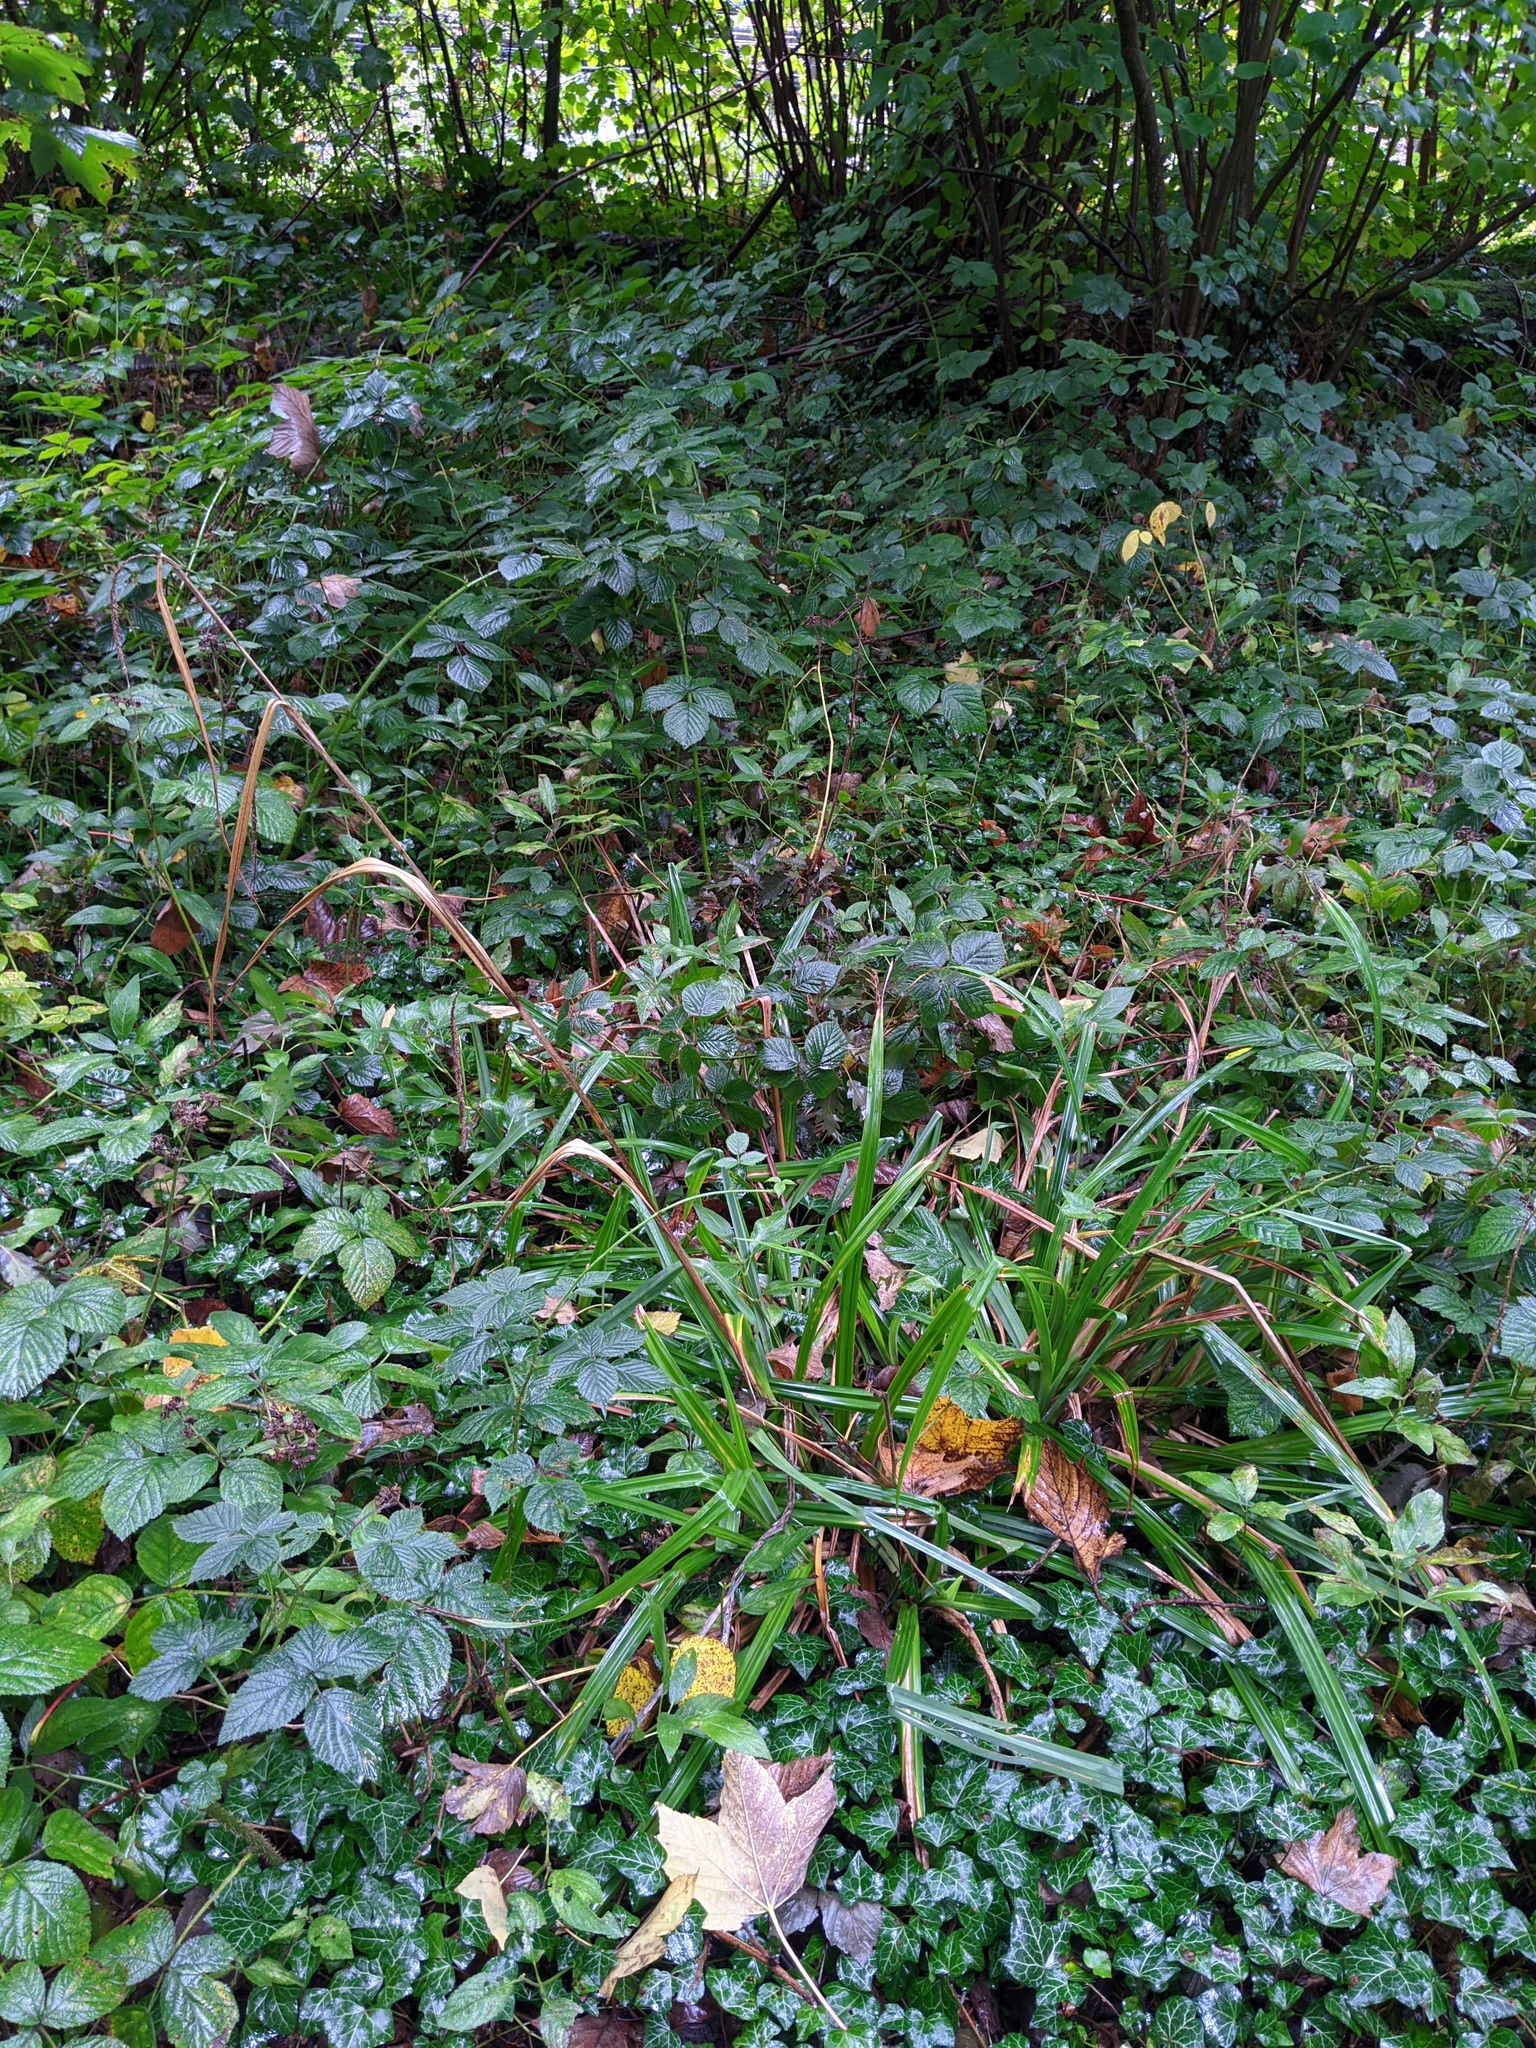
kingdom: Plantae
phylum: Tracheophyta
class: Liliopsida
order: Poales
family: Cyperaceae
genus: Carex
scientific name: Carex pendula
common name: Pendulous sedge
